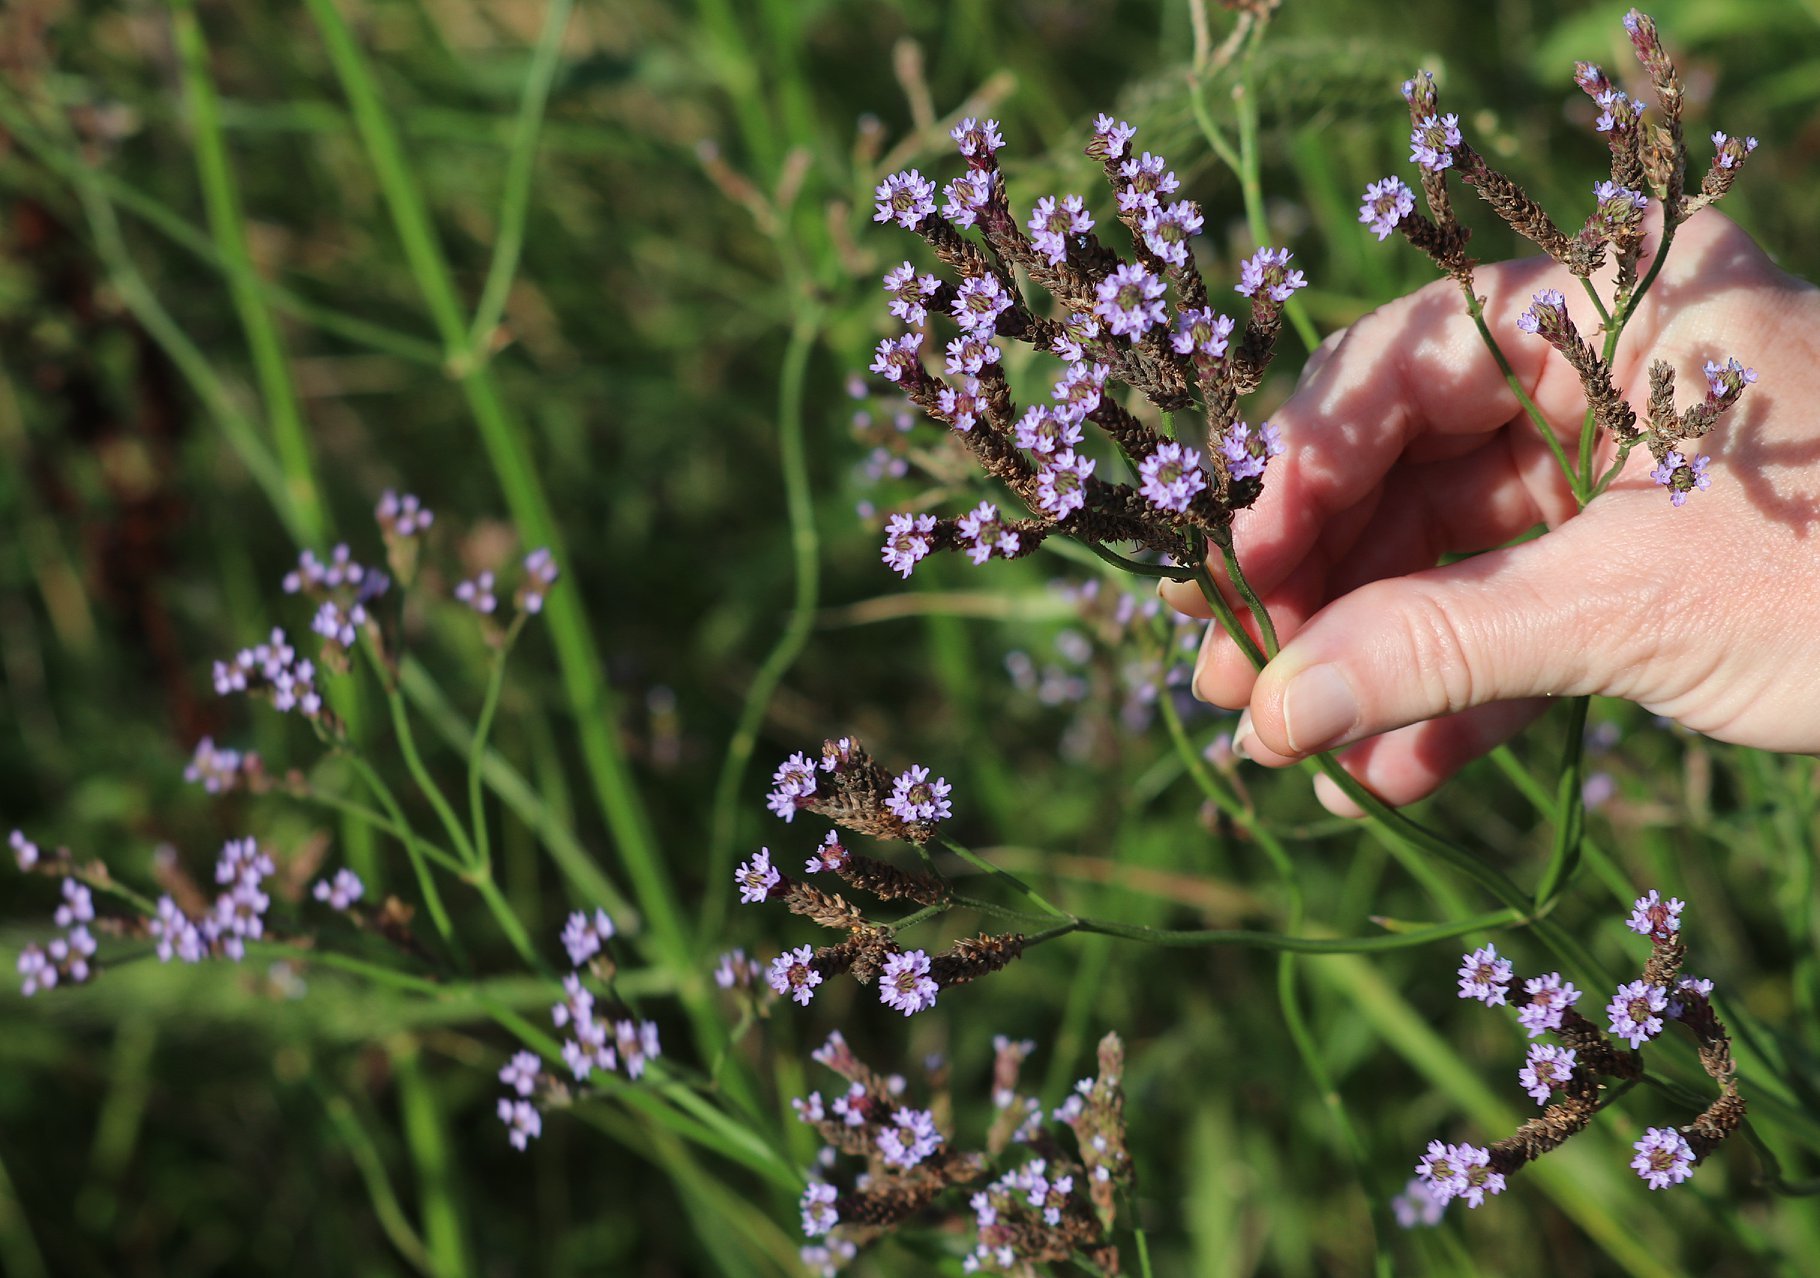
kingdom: Plantae
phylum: Tracheophyta
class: Magnoliopsida
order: Lamiales
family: Verbenaceae
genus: Verbena
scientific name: Verbena brasiliensis
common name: Brazilian vervain
